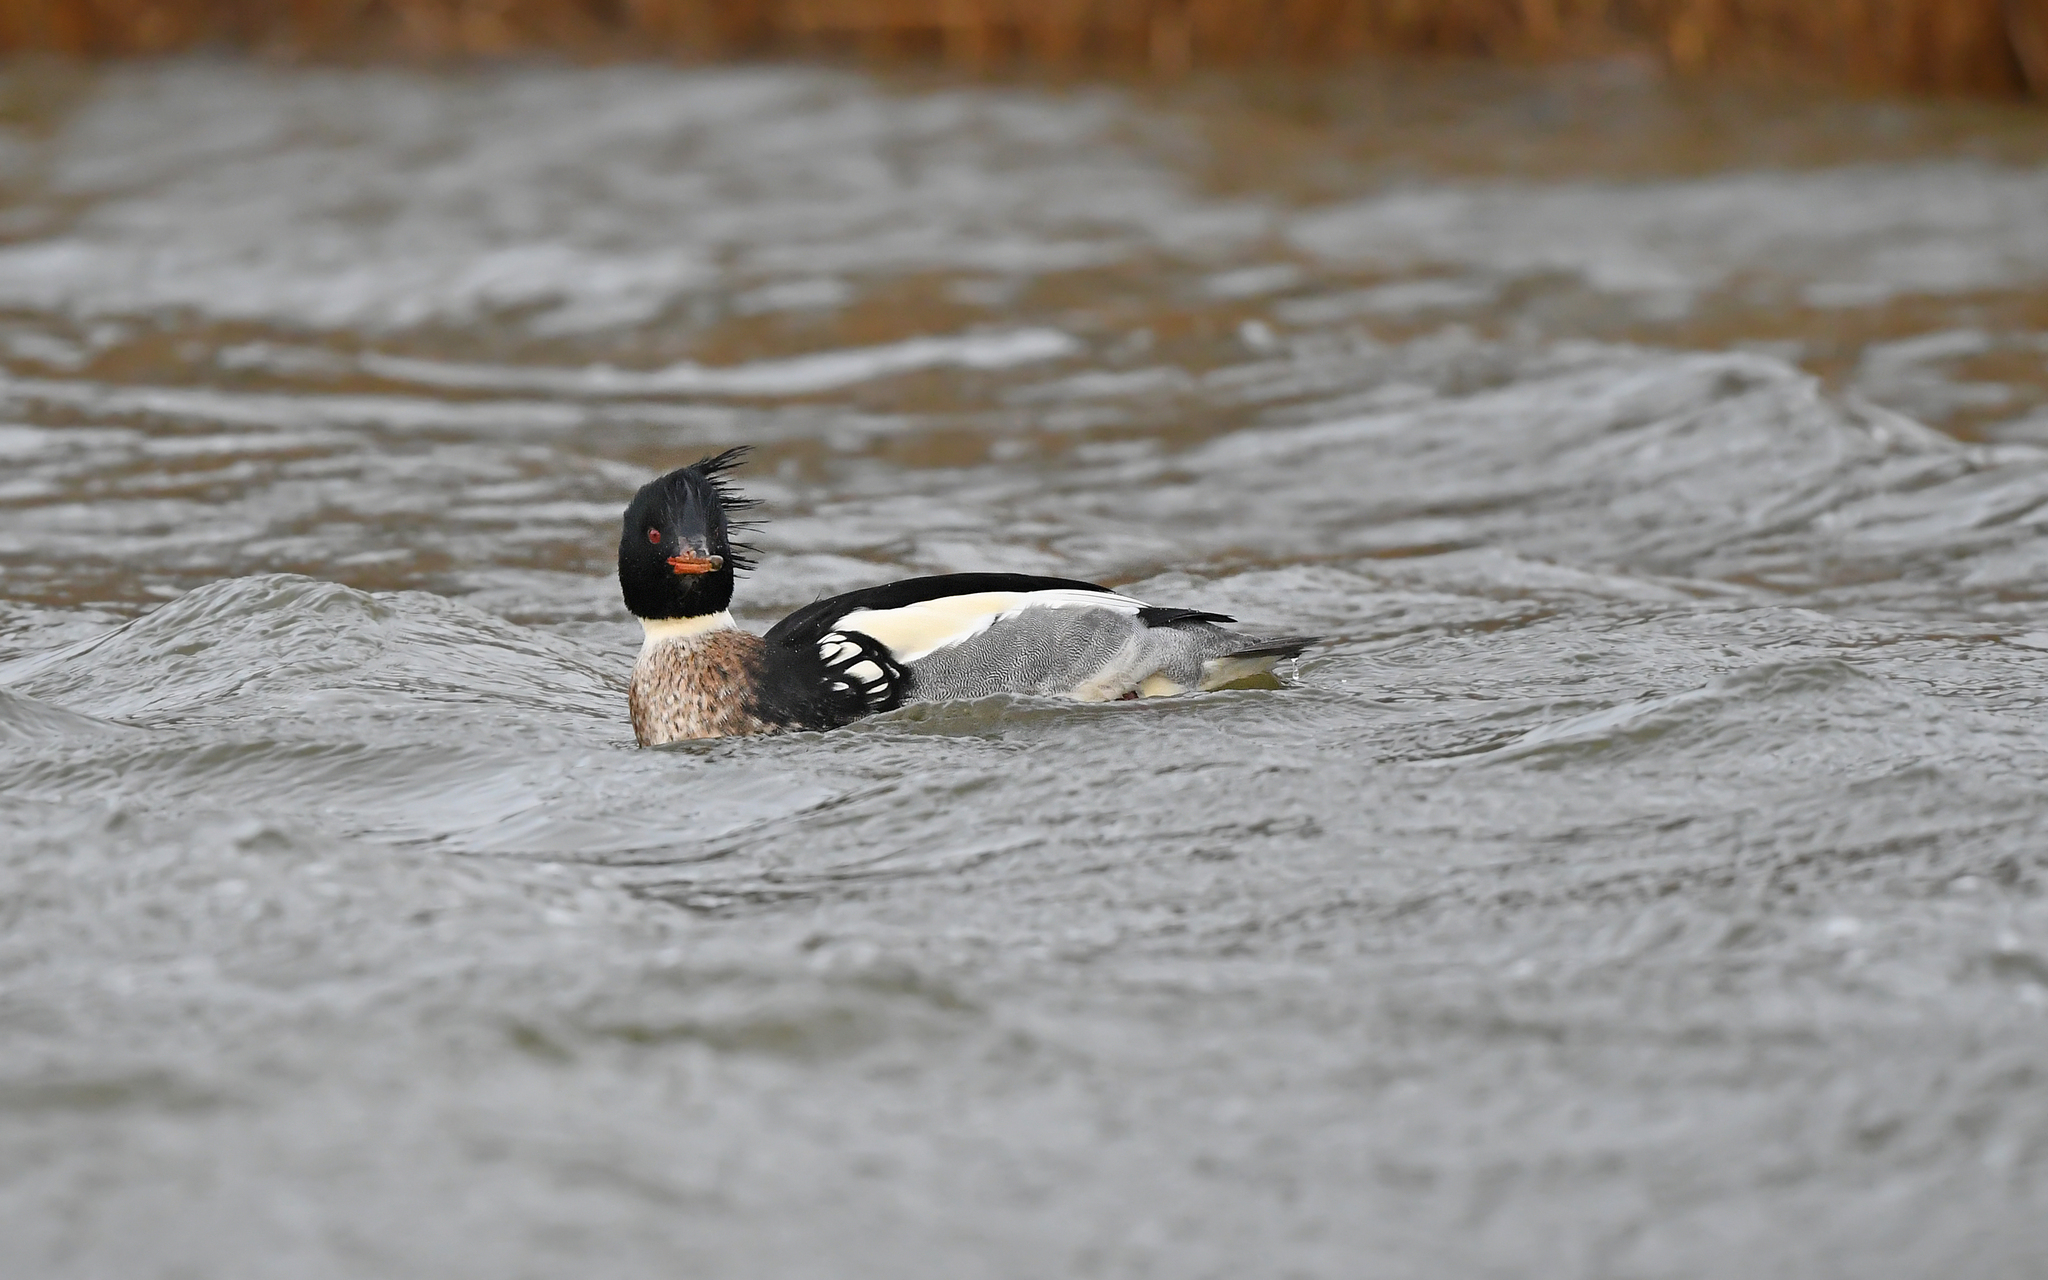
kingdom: Animalia
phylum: Chordata
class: Aves
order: Anseriformes
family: Anatidae
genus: Mergus
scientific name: Mergus serrator
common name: Red-breasted merganser
